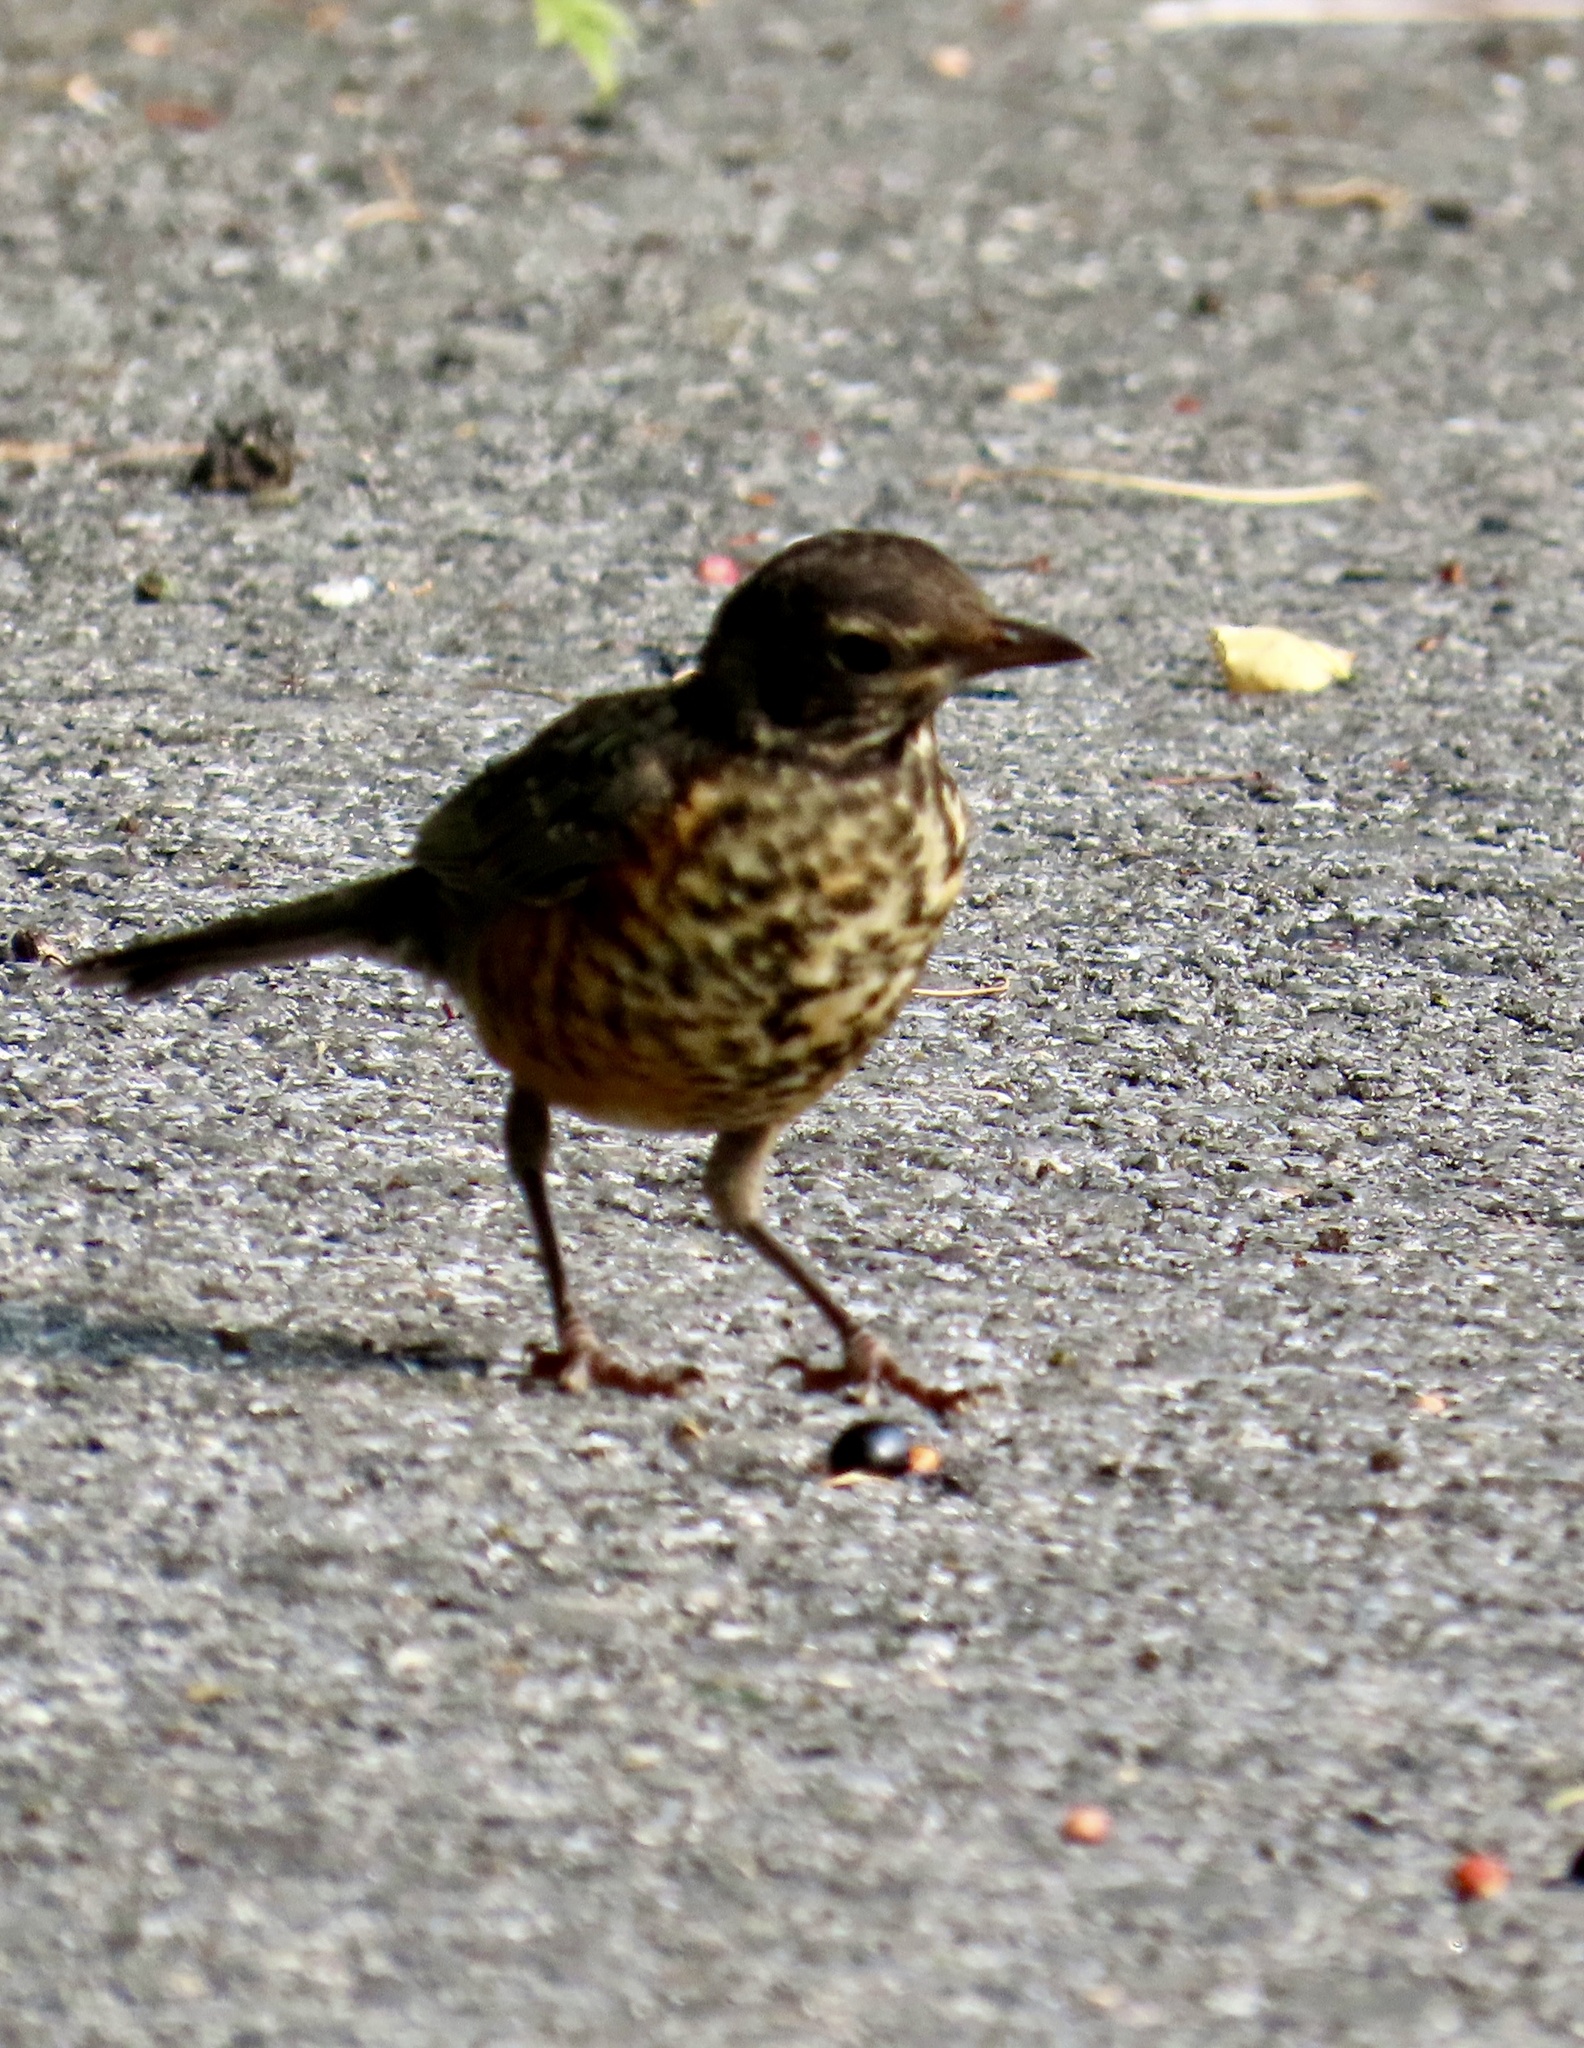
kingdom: Animalia
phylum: Chordata
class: Aves
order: Passeriformes
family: Turdidae
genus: Turdus
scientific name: Turdus migratorius
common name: American robin
